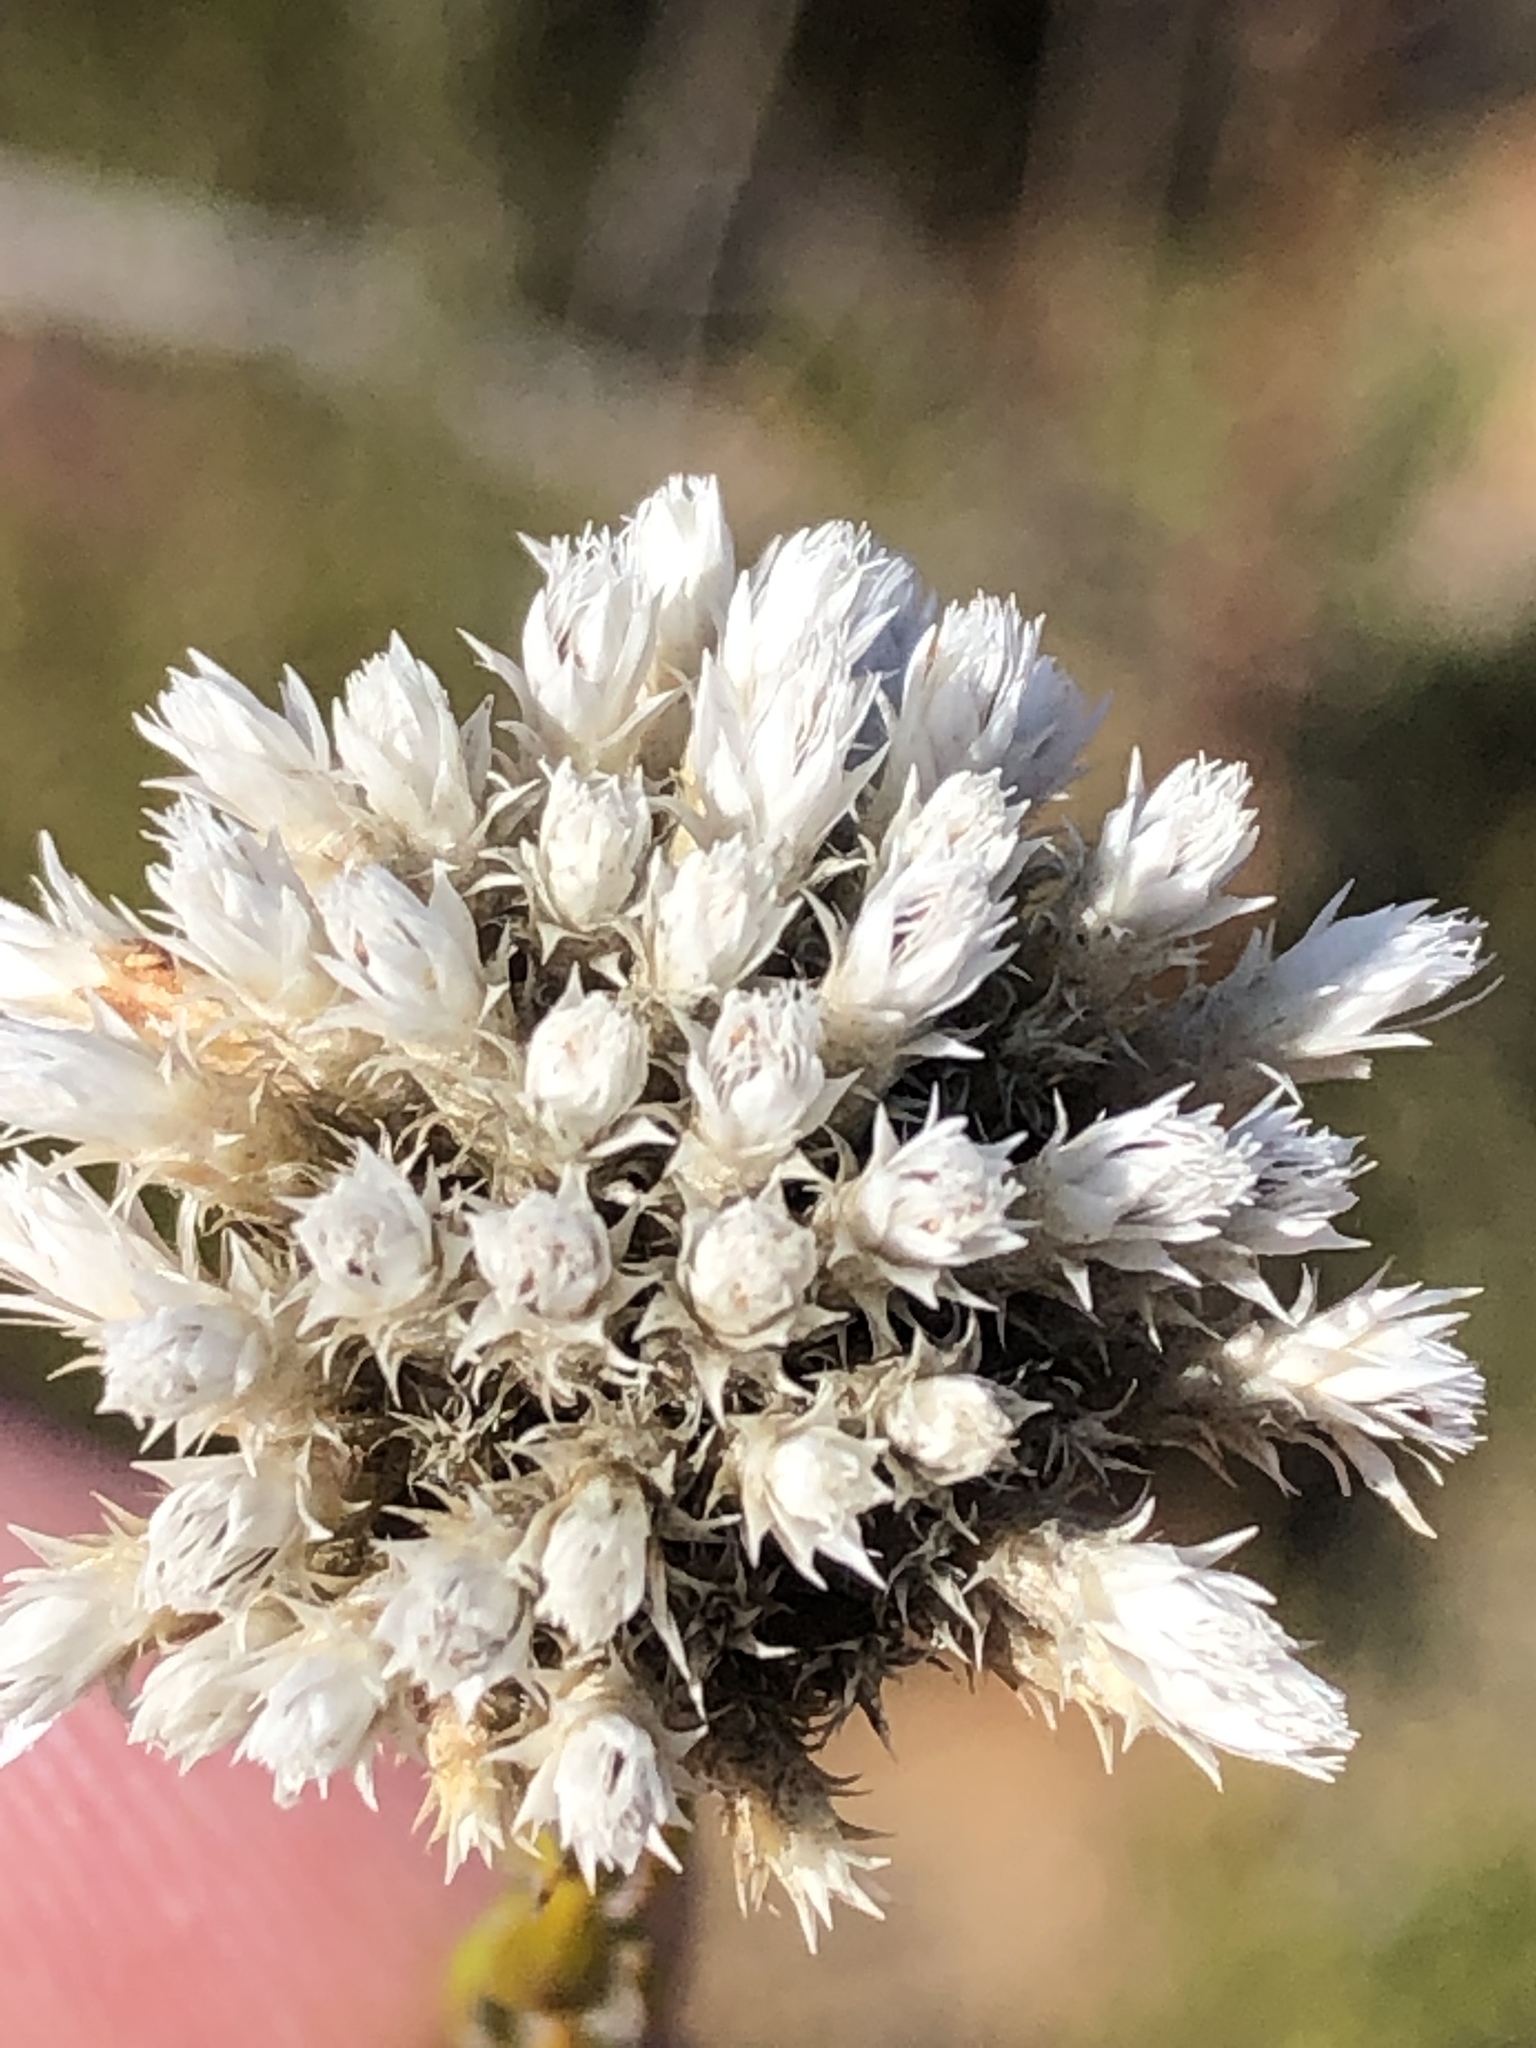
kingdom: Plantae
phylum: Tracheophyta
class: Magnoliopsida
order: Asterales
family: Asteraceae
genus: Metalasia
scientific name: Metalasia pulcherrima
